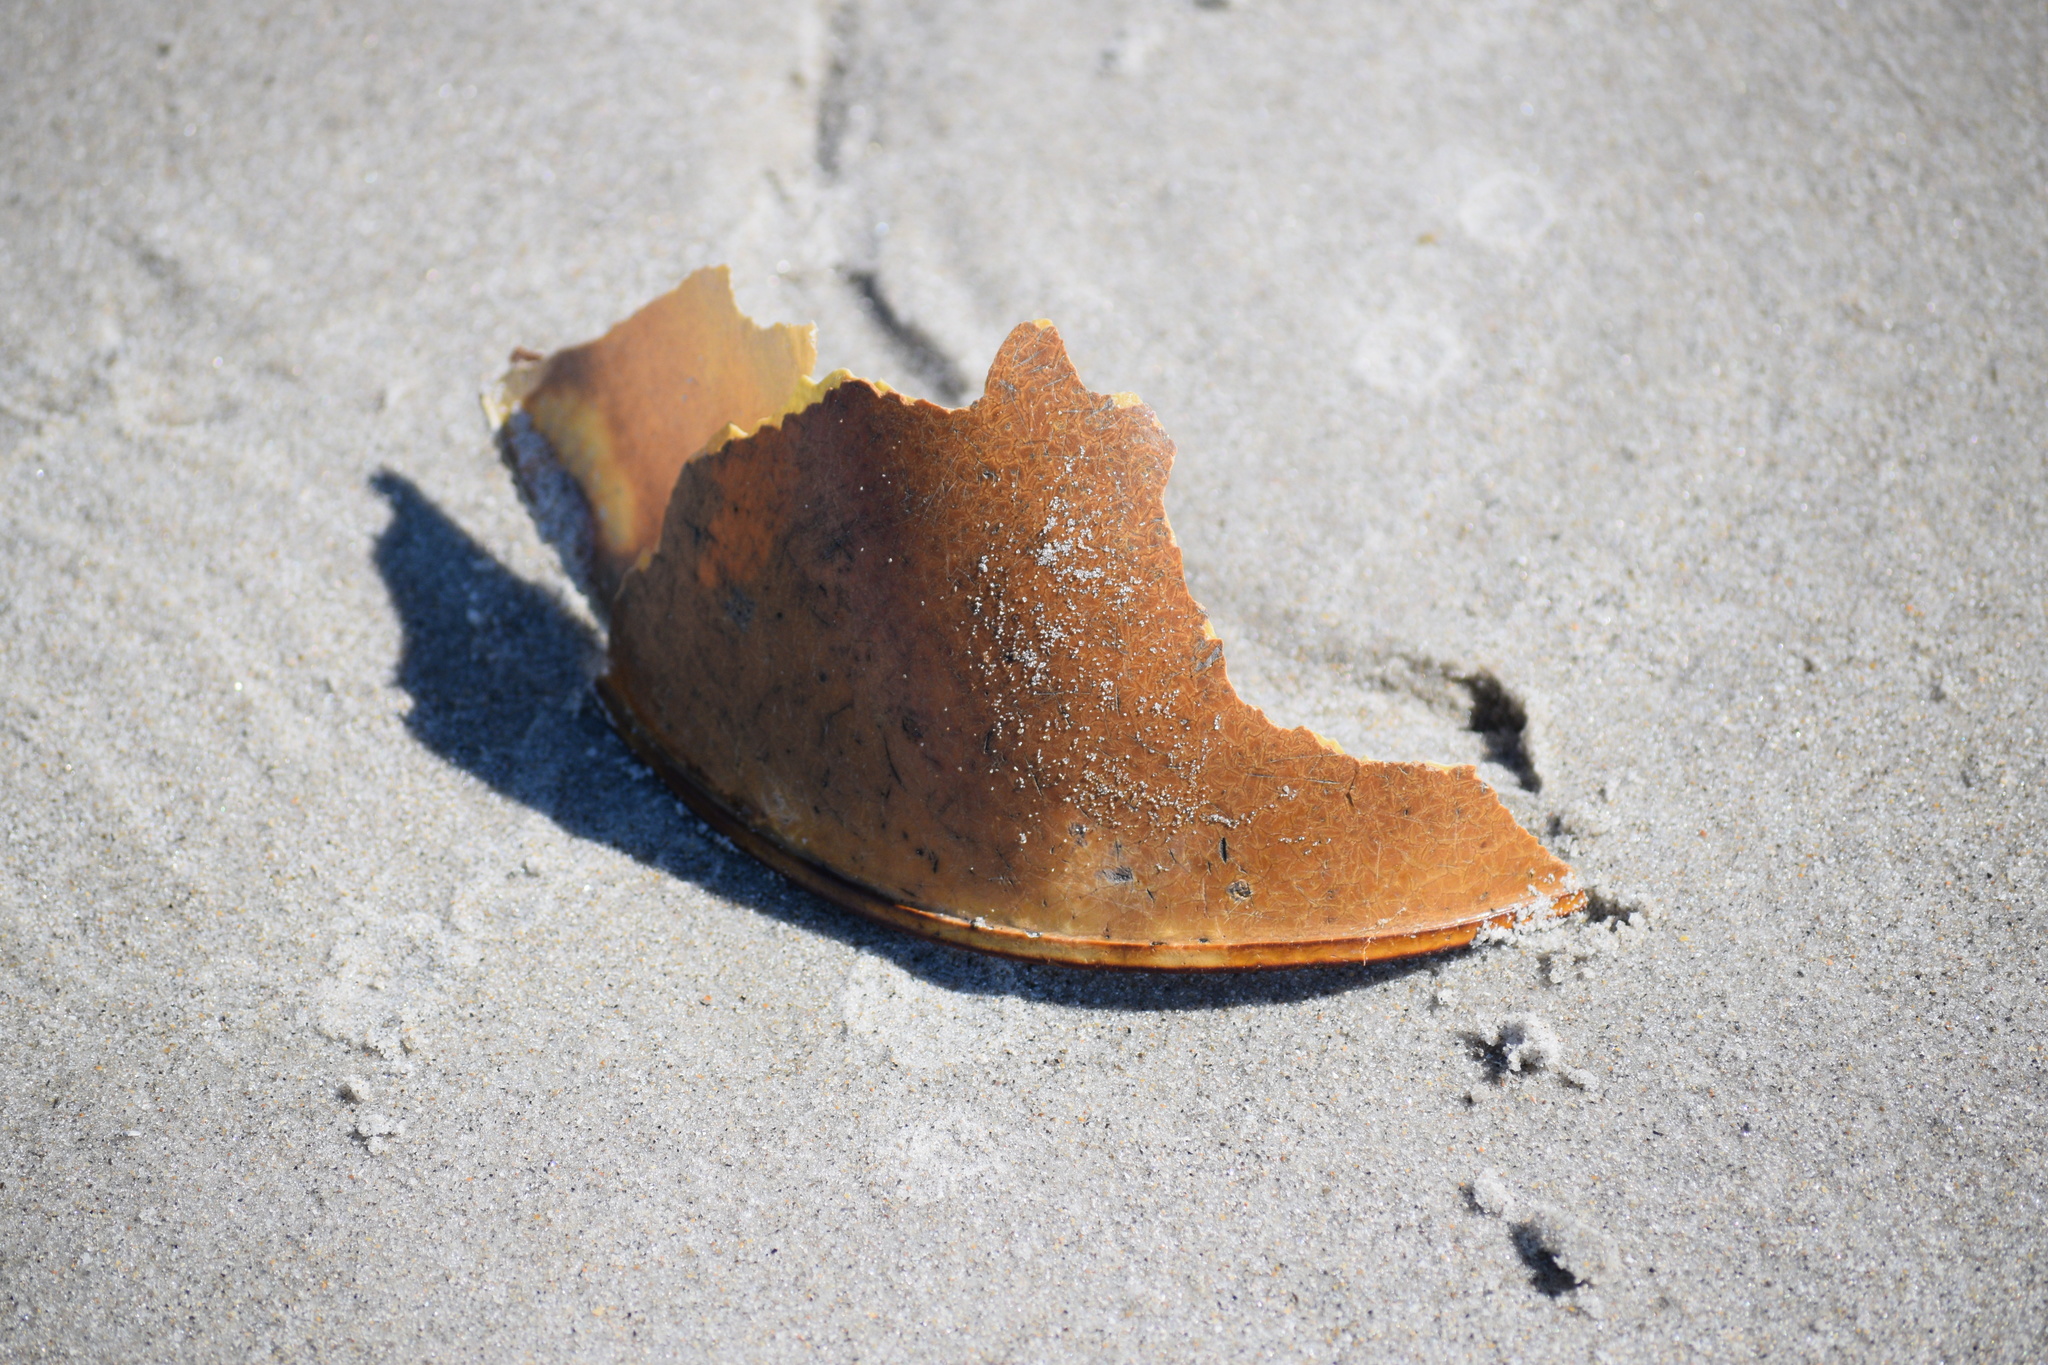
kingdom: Animalia
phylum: Arthropoda
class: Merostomata
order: Xiphosurida
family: Limulidae
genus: Limulus
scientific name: Limulus polyphemus
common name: Horseshoe crab
